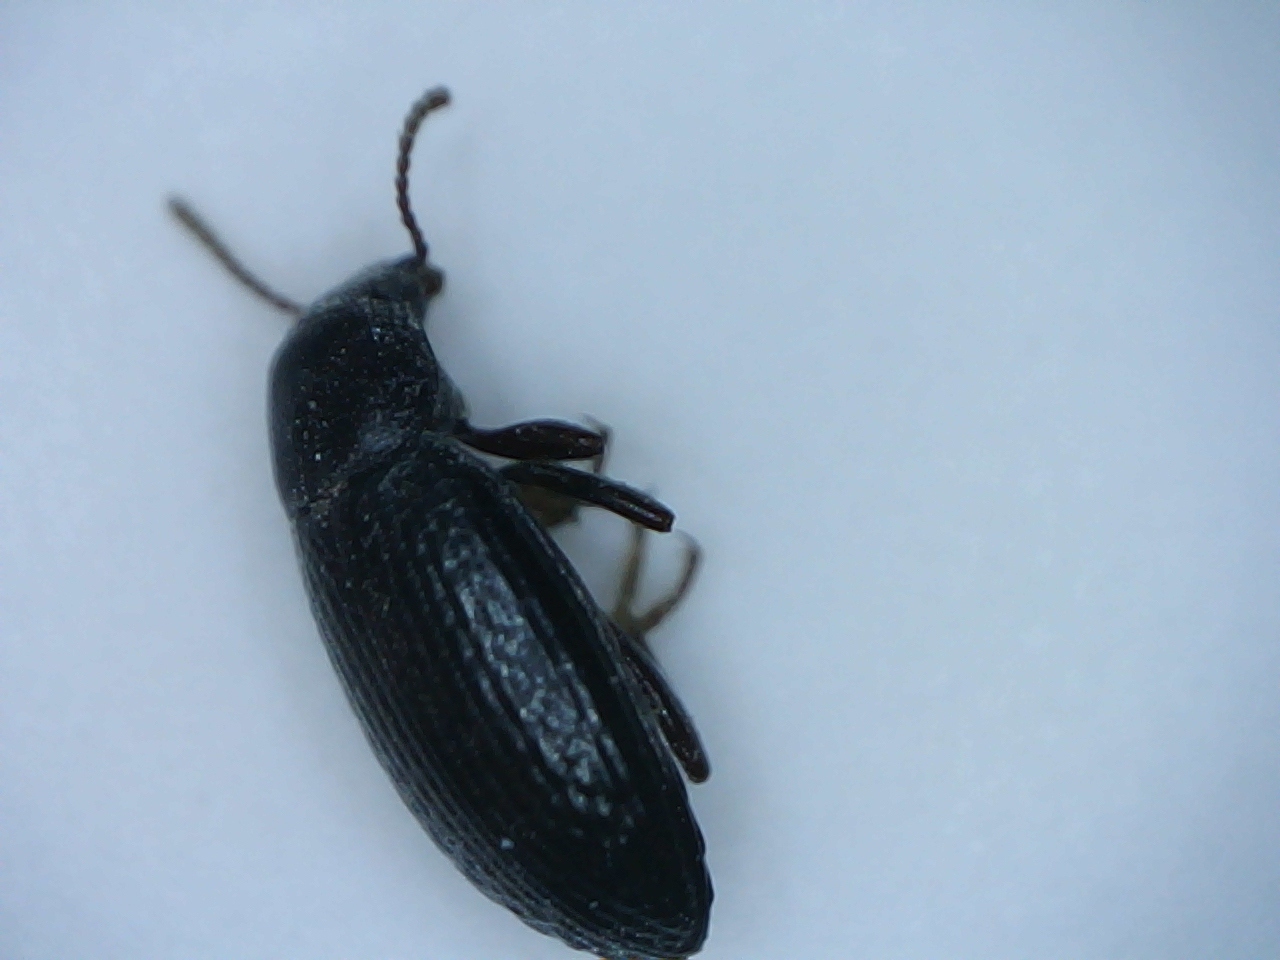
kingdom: Animalia
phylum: Arthropoda
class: Insecta
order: Coleoptera
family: Tenebrionidae
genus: Artystona
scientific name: Artystona
